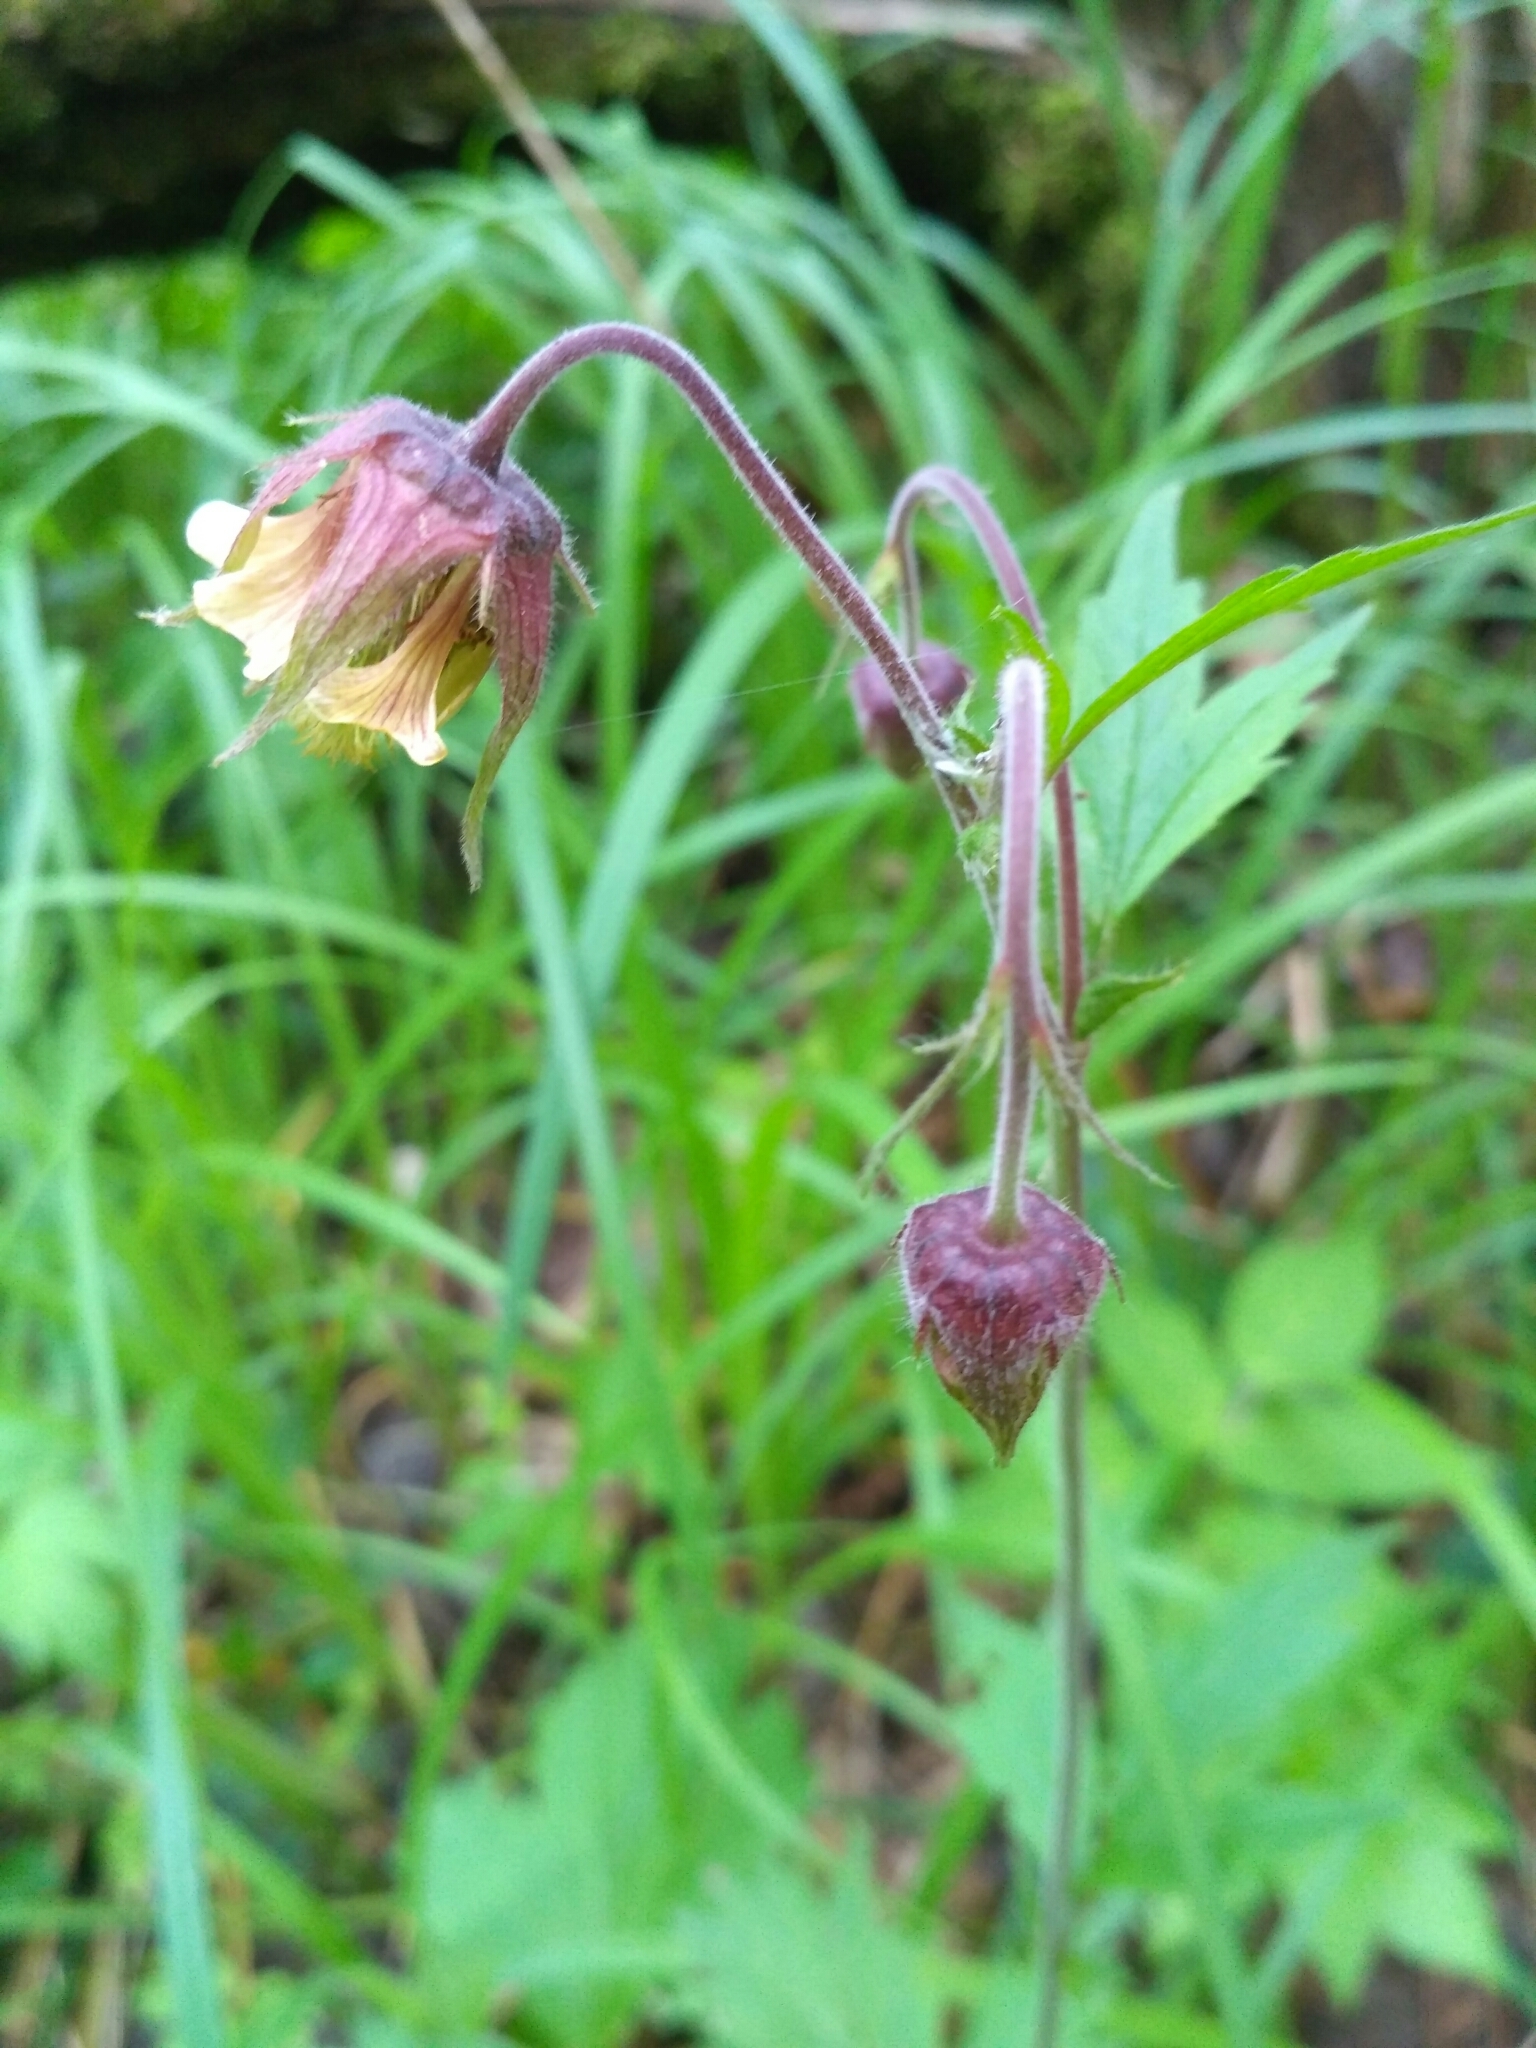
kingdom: Plantae
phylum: Tracheophyta
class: Magnoliopsida
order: Rosales
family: Rosaceae
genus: Geum
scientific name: Geum rivale
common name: Water avens
